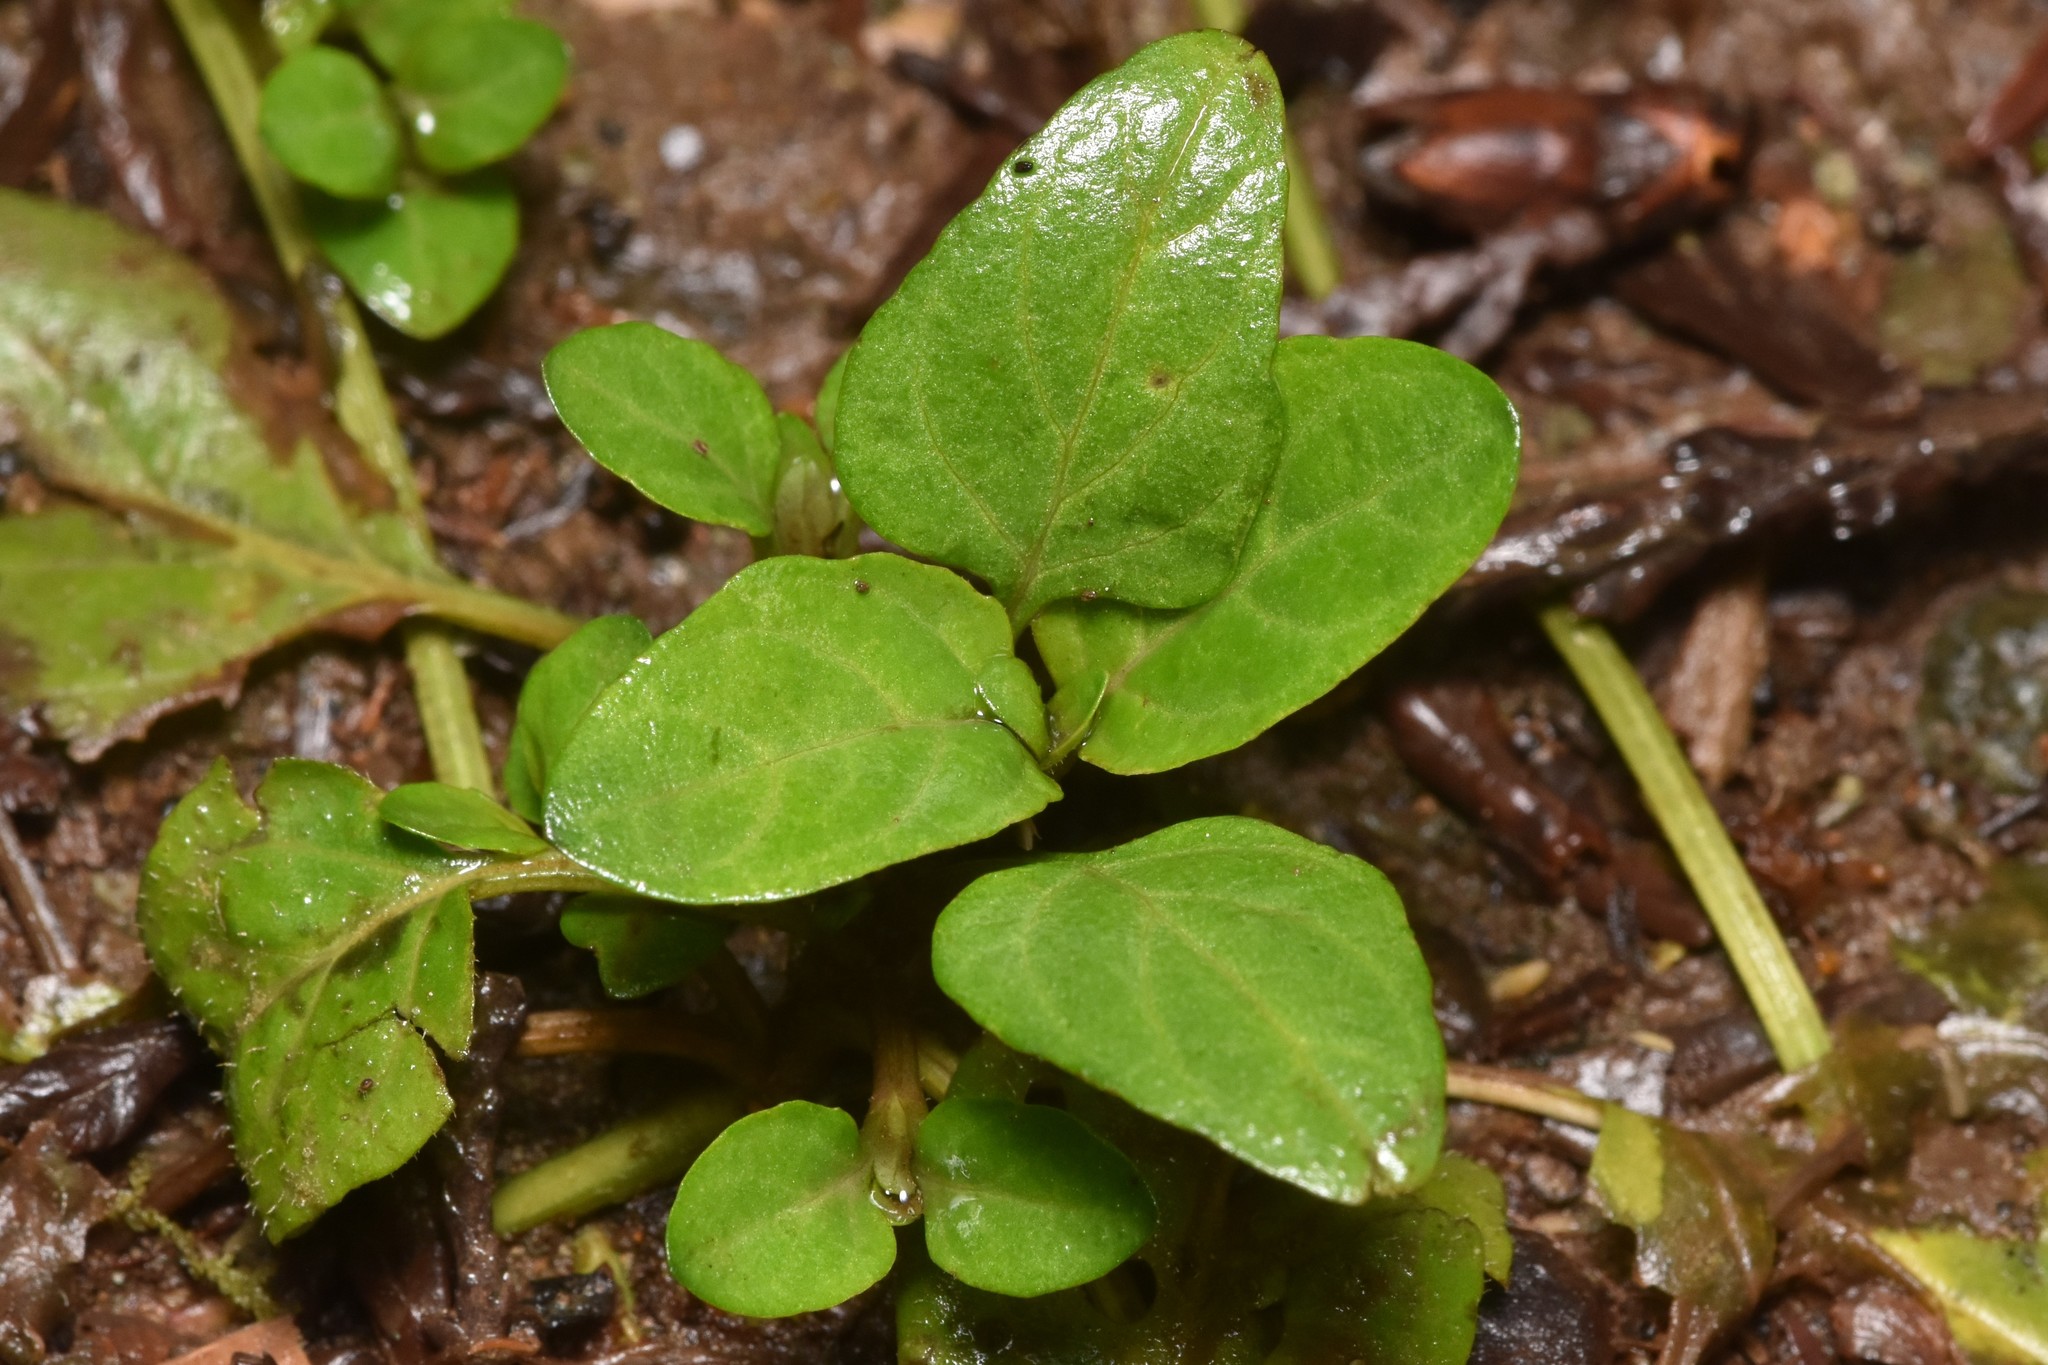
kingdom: Plantae
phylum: Tracheophyta
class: Magnoliopsida
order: Lamiales
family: Lamiaceae
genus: Prunella
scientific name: Prunella vulgaris
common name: Heal-all
